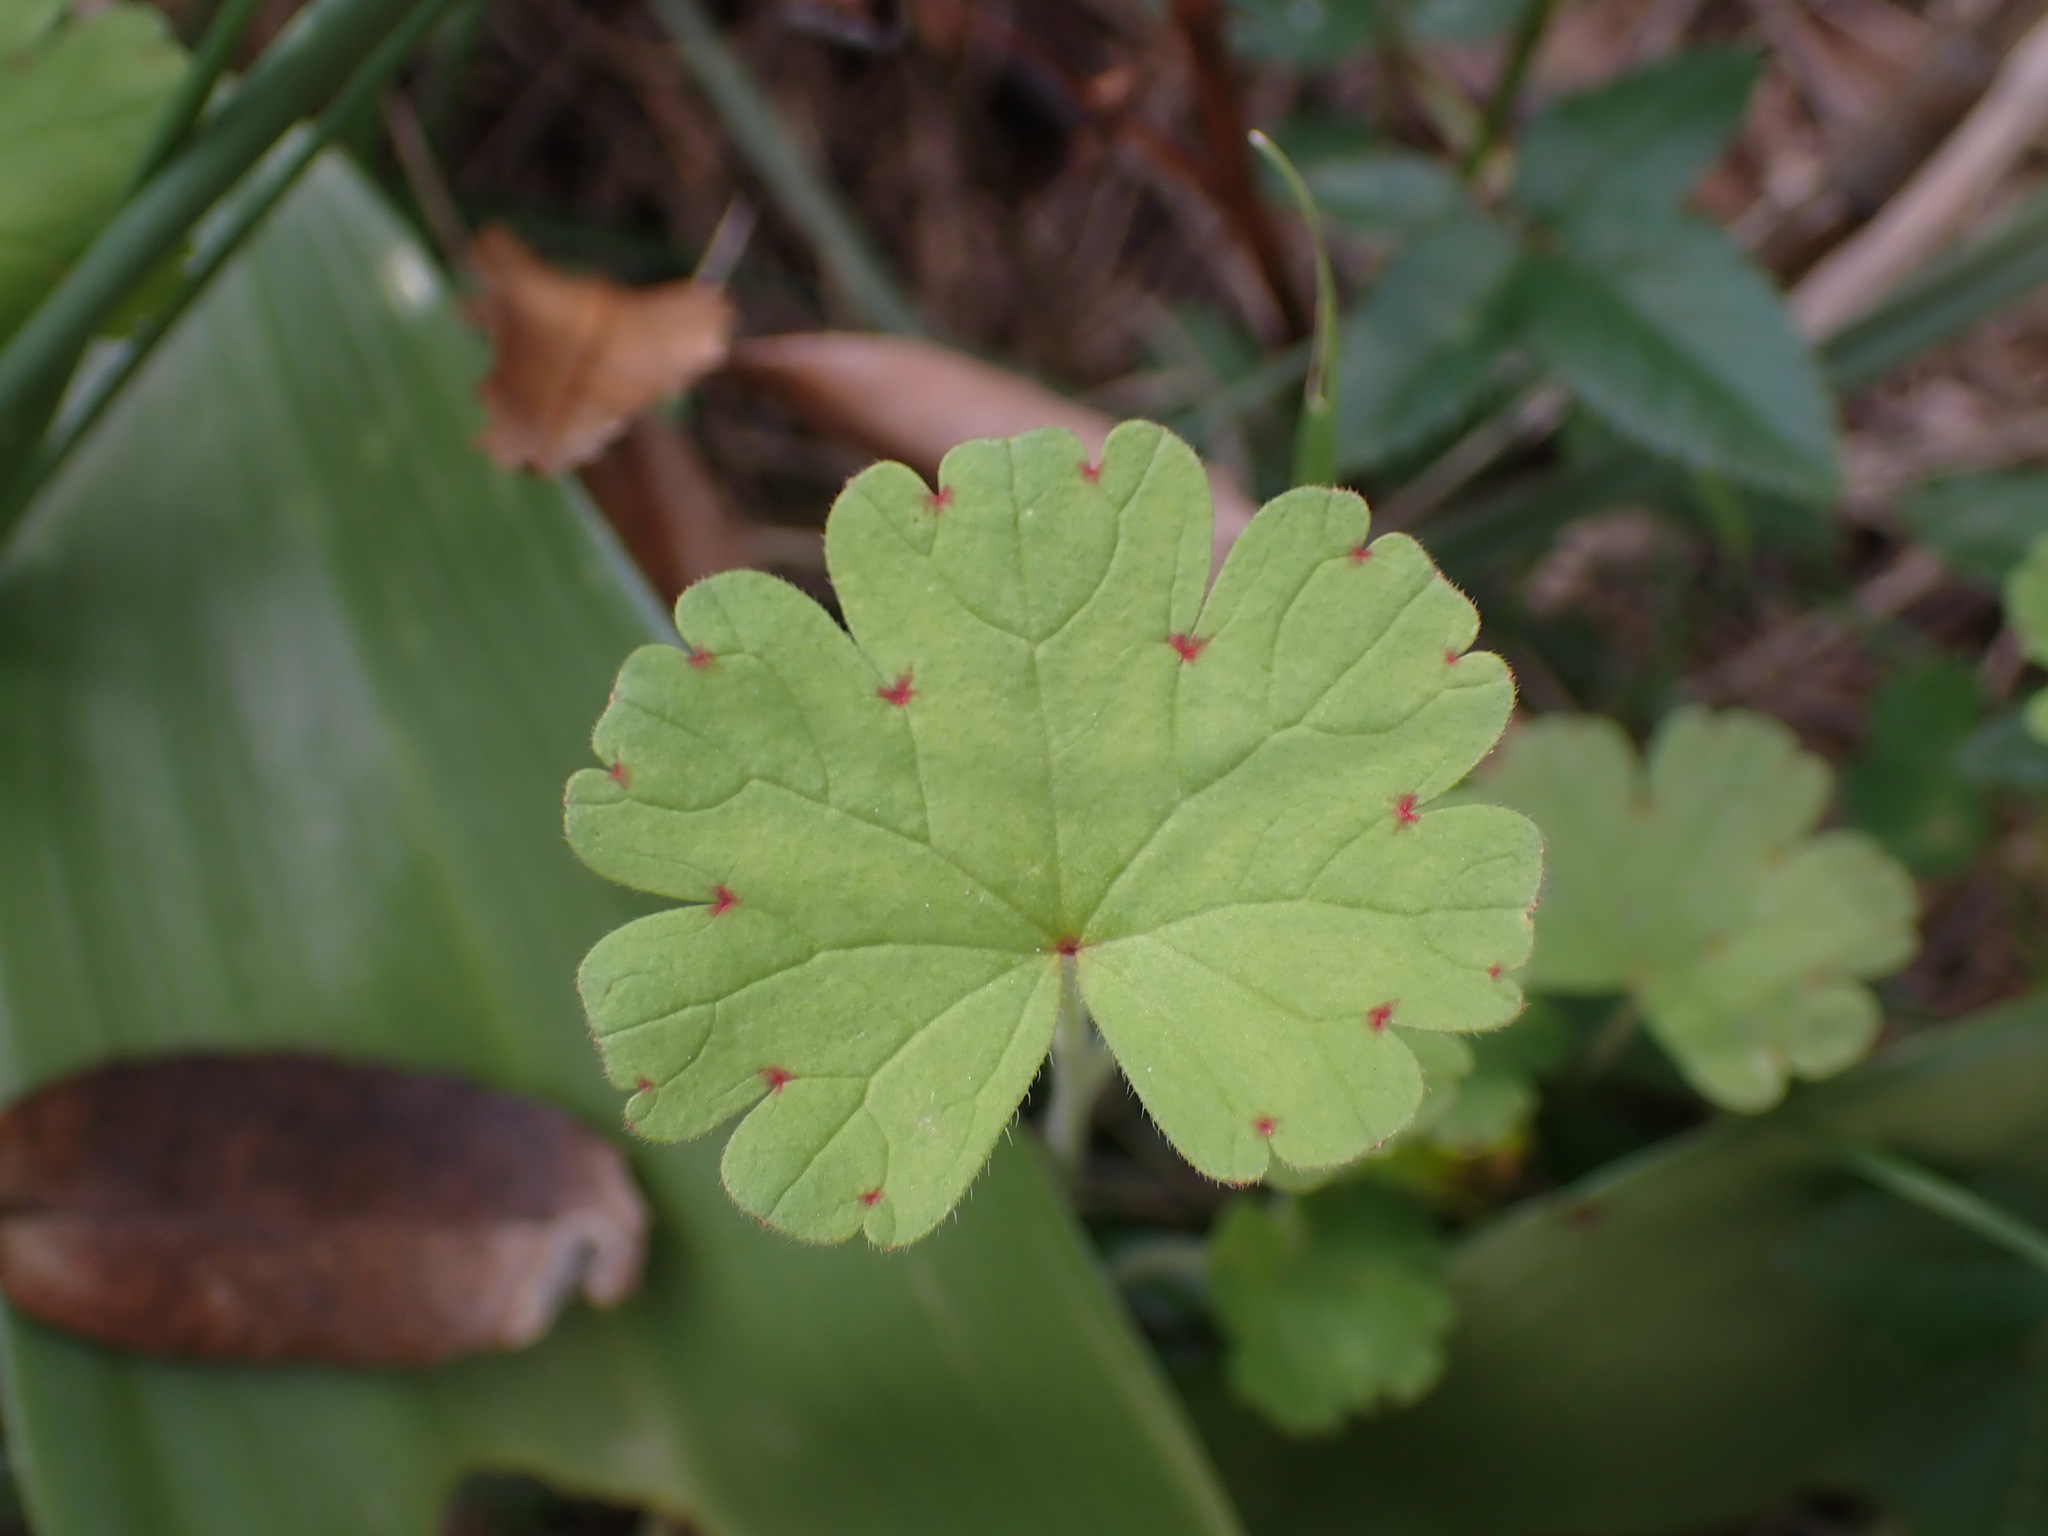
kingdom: Plantae
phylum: Tracheophyta
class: Magnoliopsida
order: Geraniales
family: Geraniaceae
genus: Geranium
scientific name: Geranium rotundifolium
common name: Round-leaved crane's-bill
